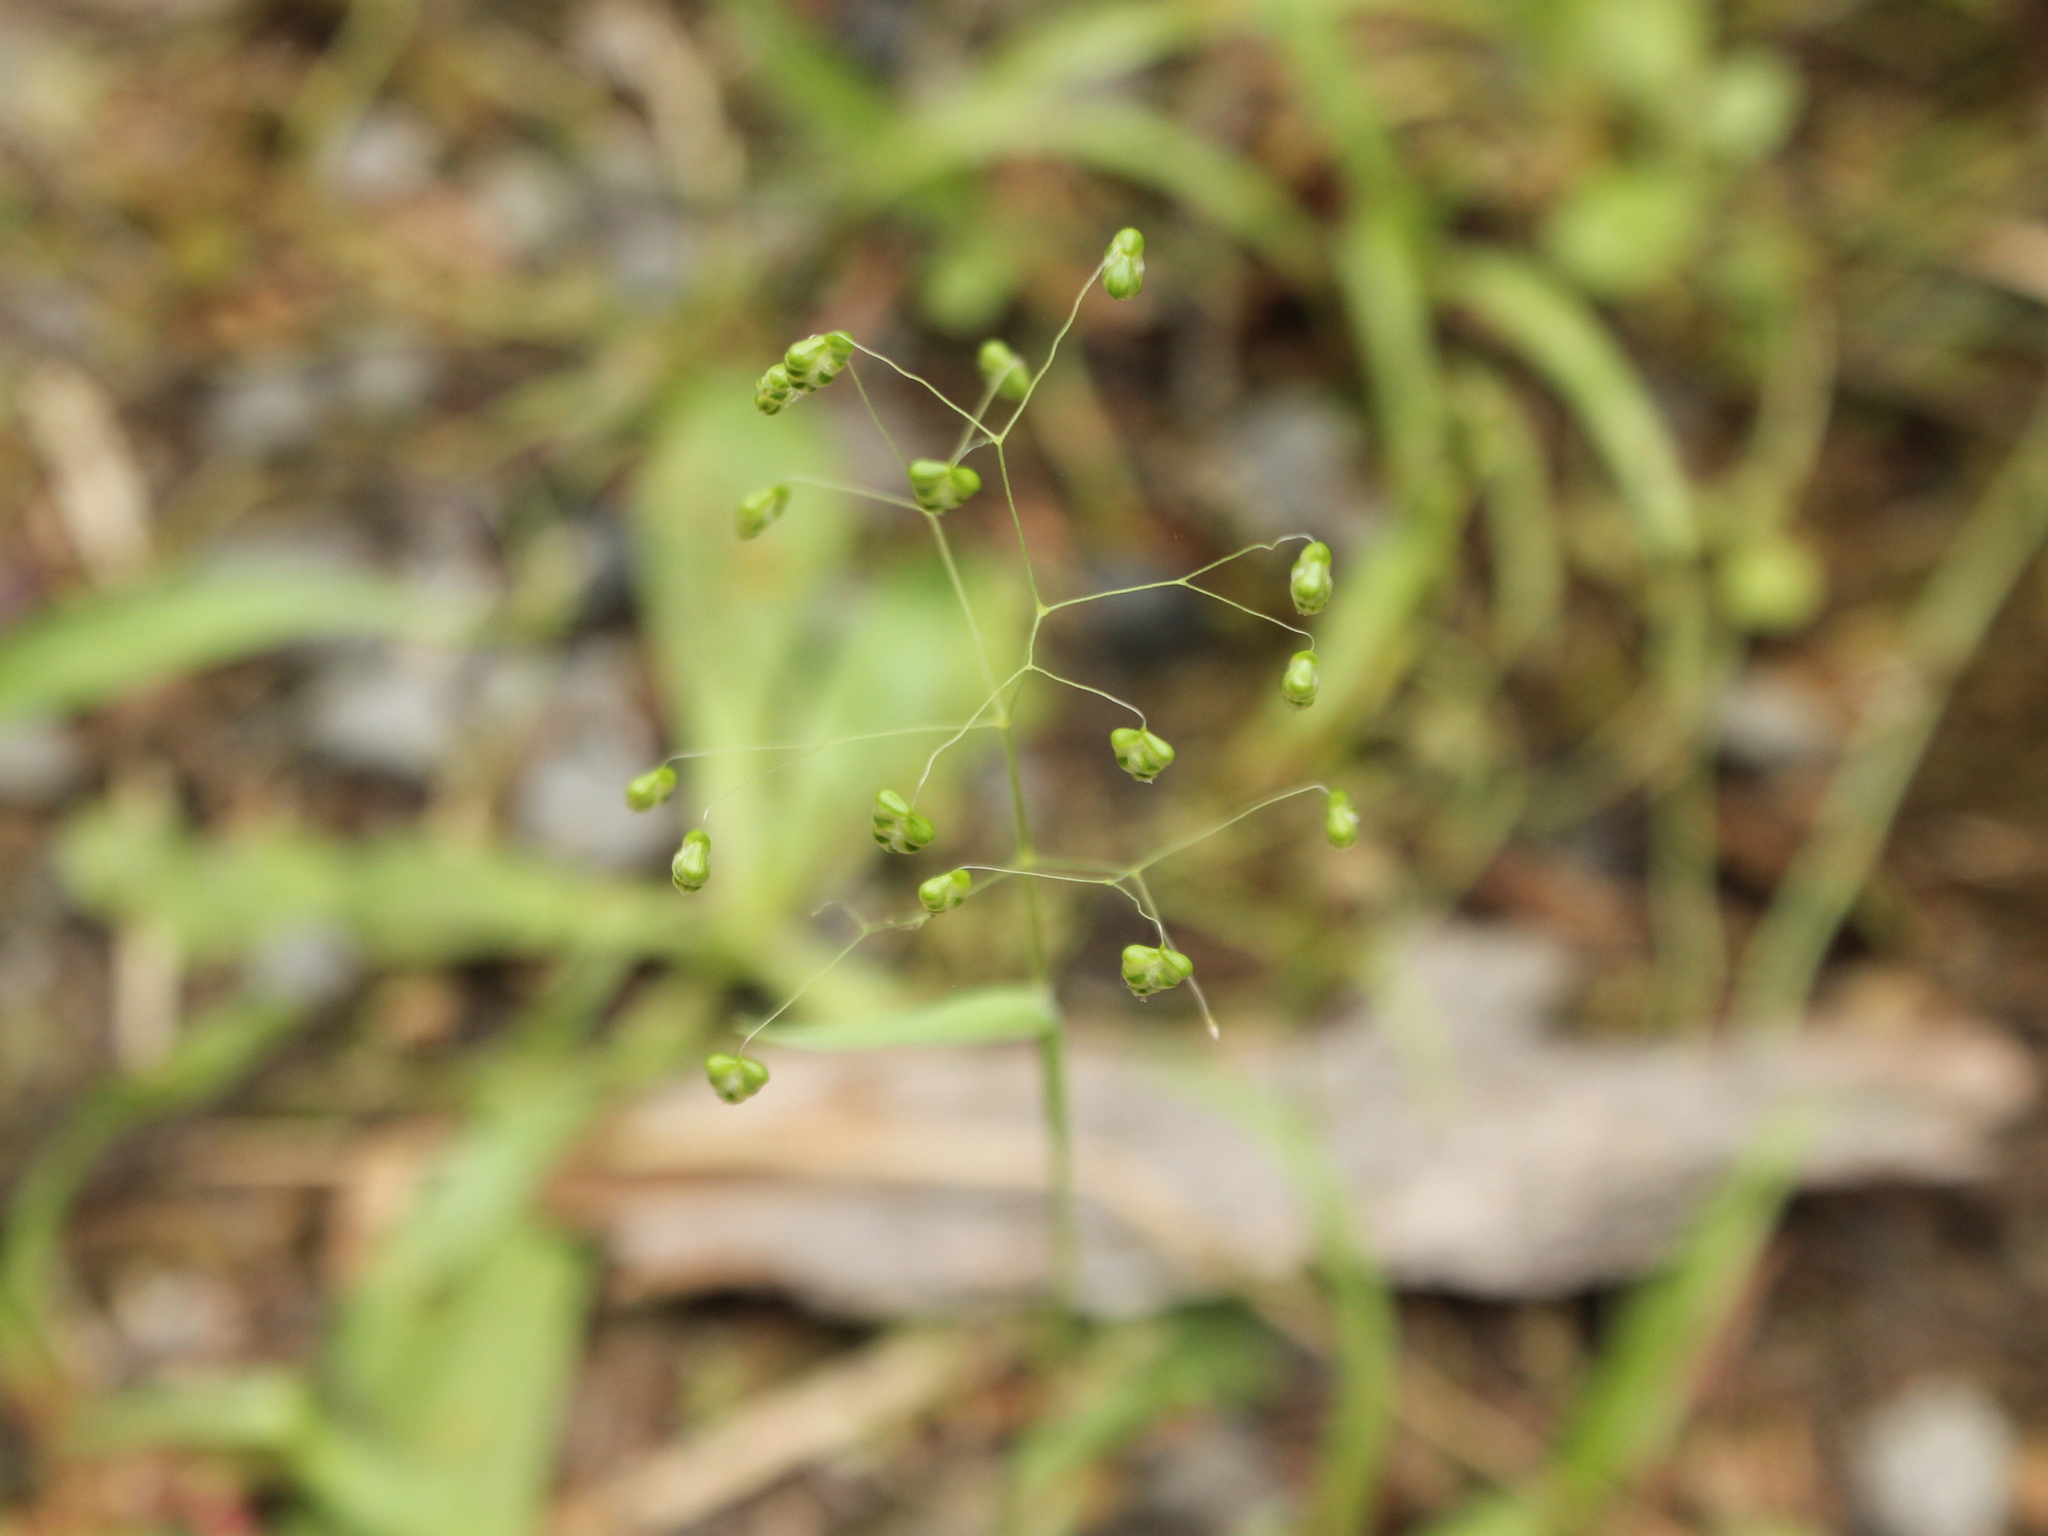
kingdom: Plantae
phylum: Tracheophyta
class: Liliopsida
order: Poales
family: Poaceae
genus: Briza
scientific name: Briza minor
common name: Lesser quaking-grass
